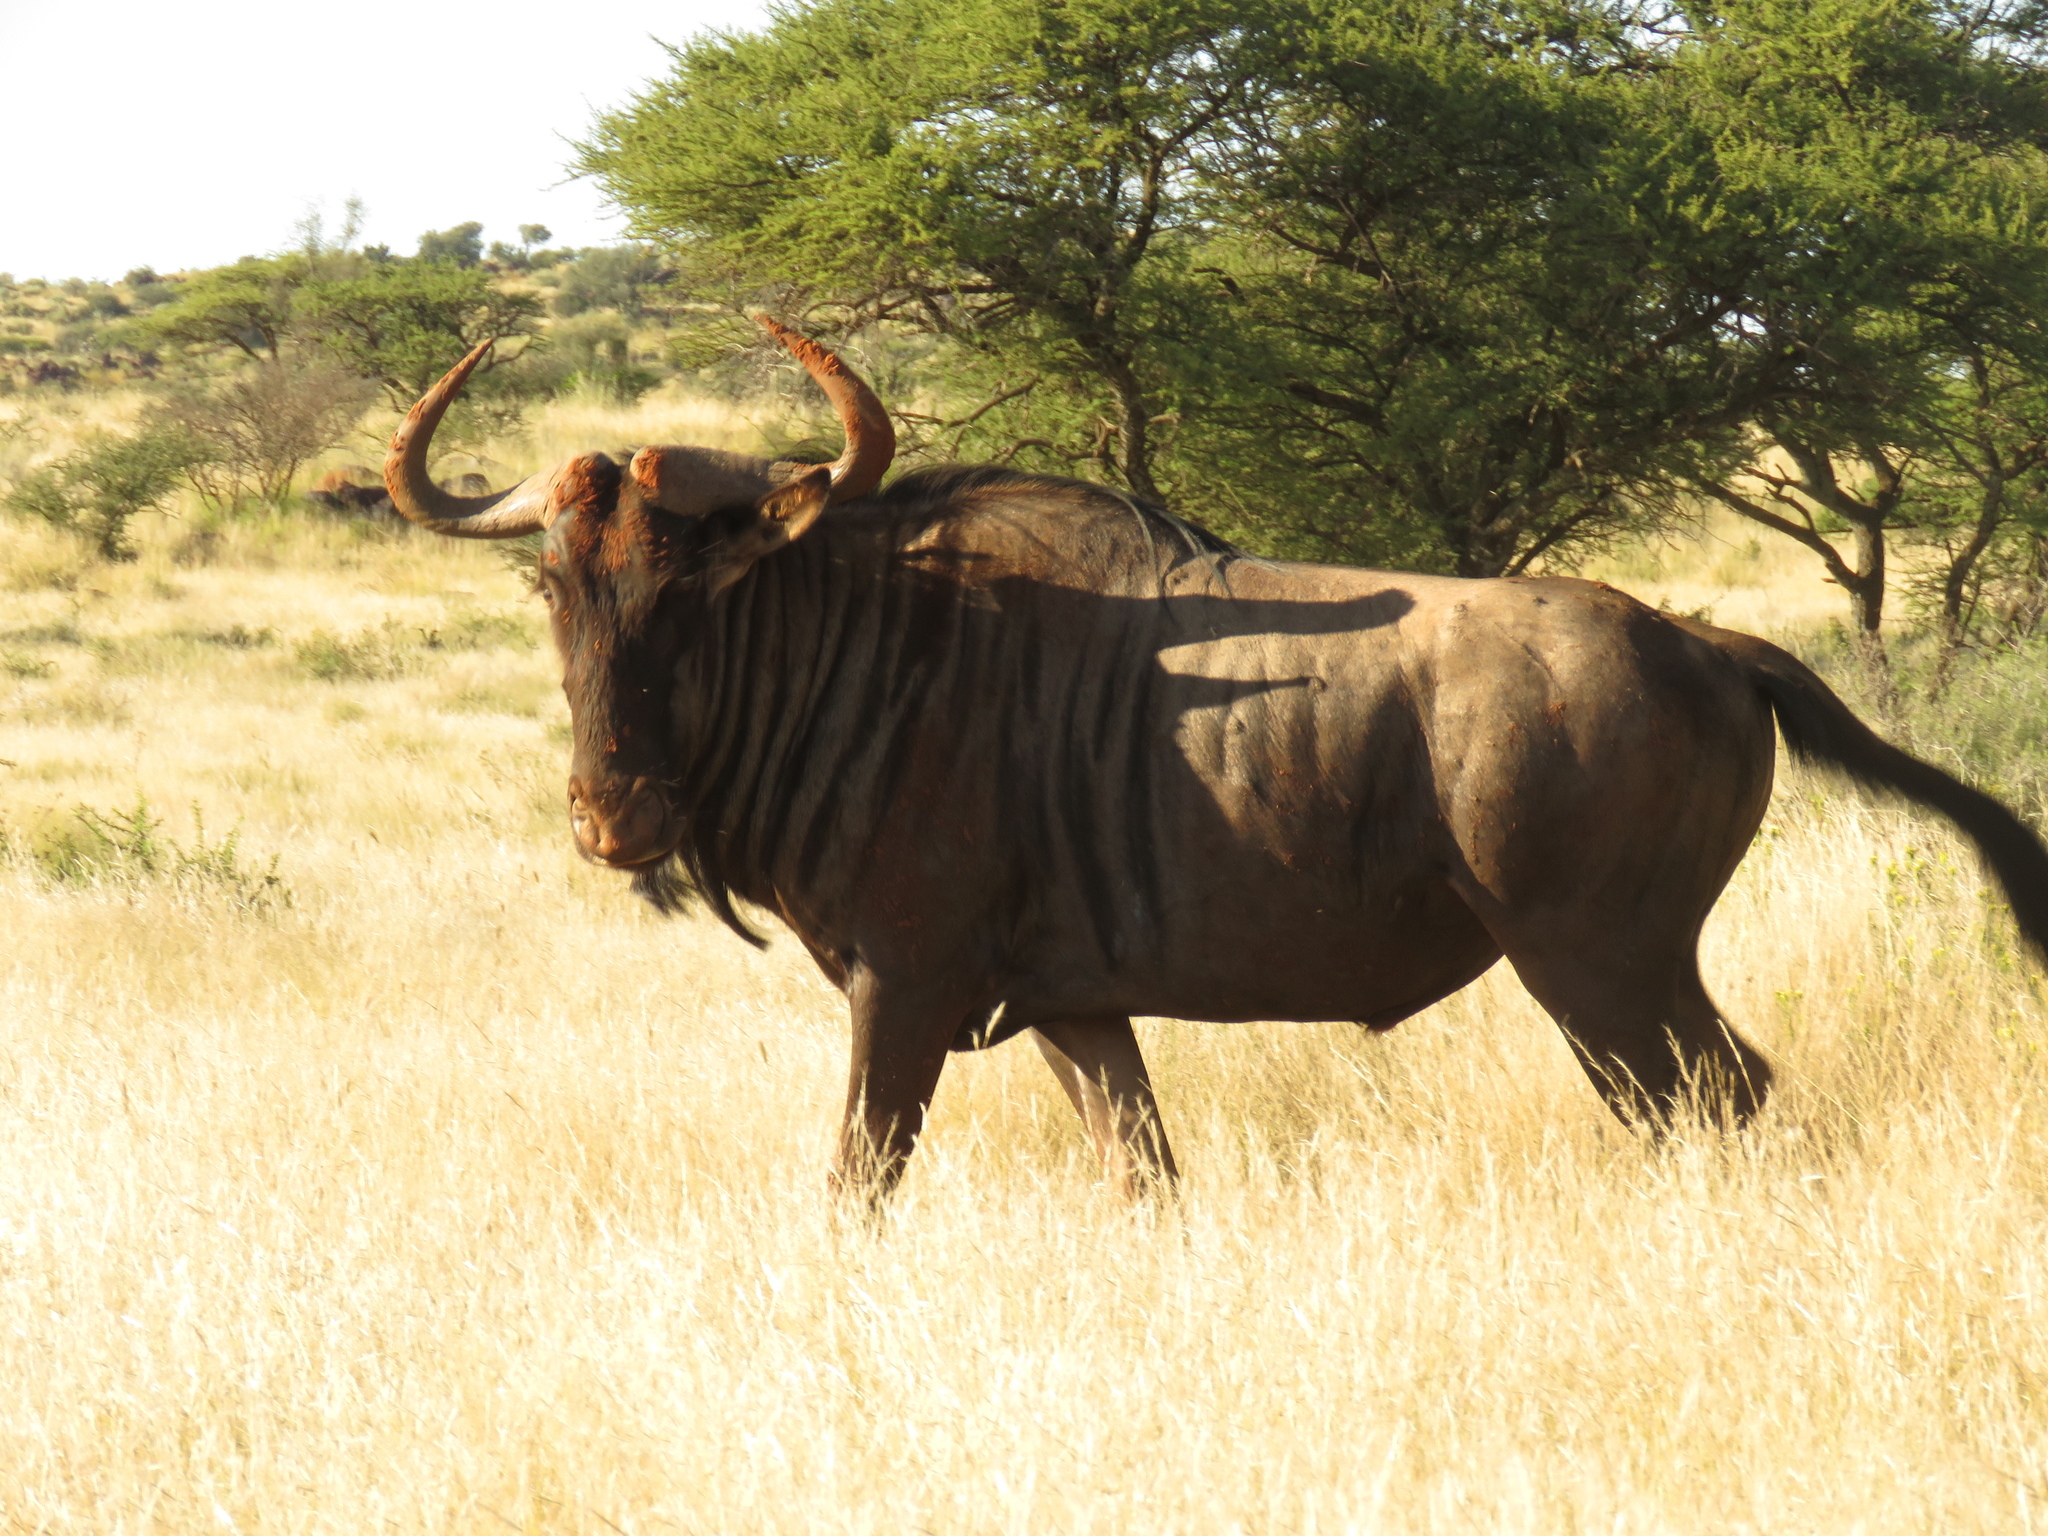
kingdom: Animalia
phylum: Chordata
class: Mammalia
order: Artiodactyla
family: Bovidae
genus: Connochaetes
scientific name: Connochaetes taurinus
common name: Blue wildebeest
